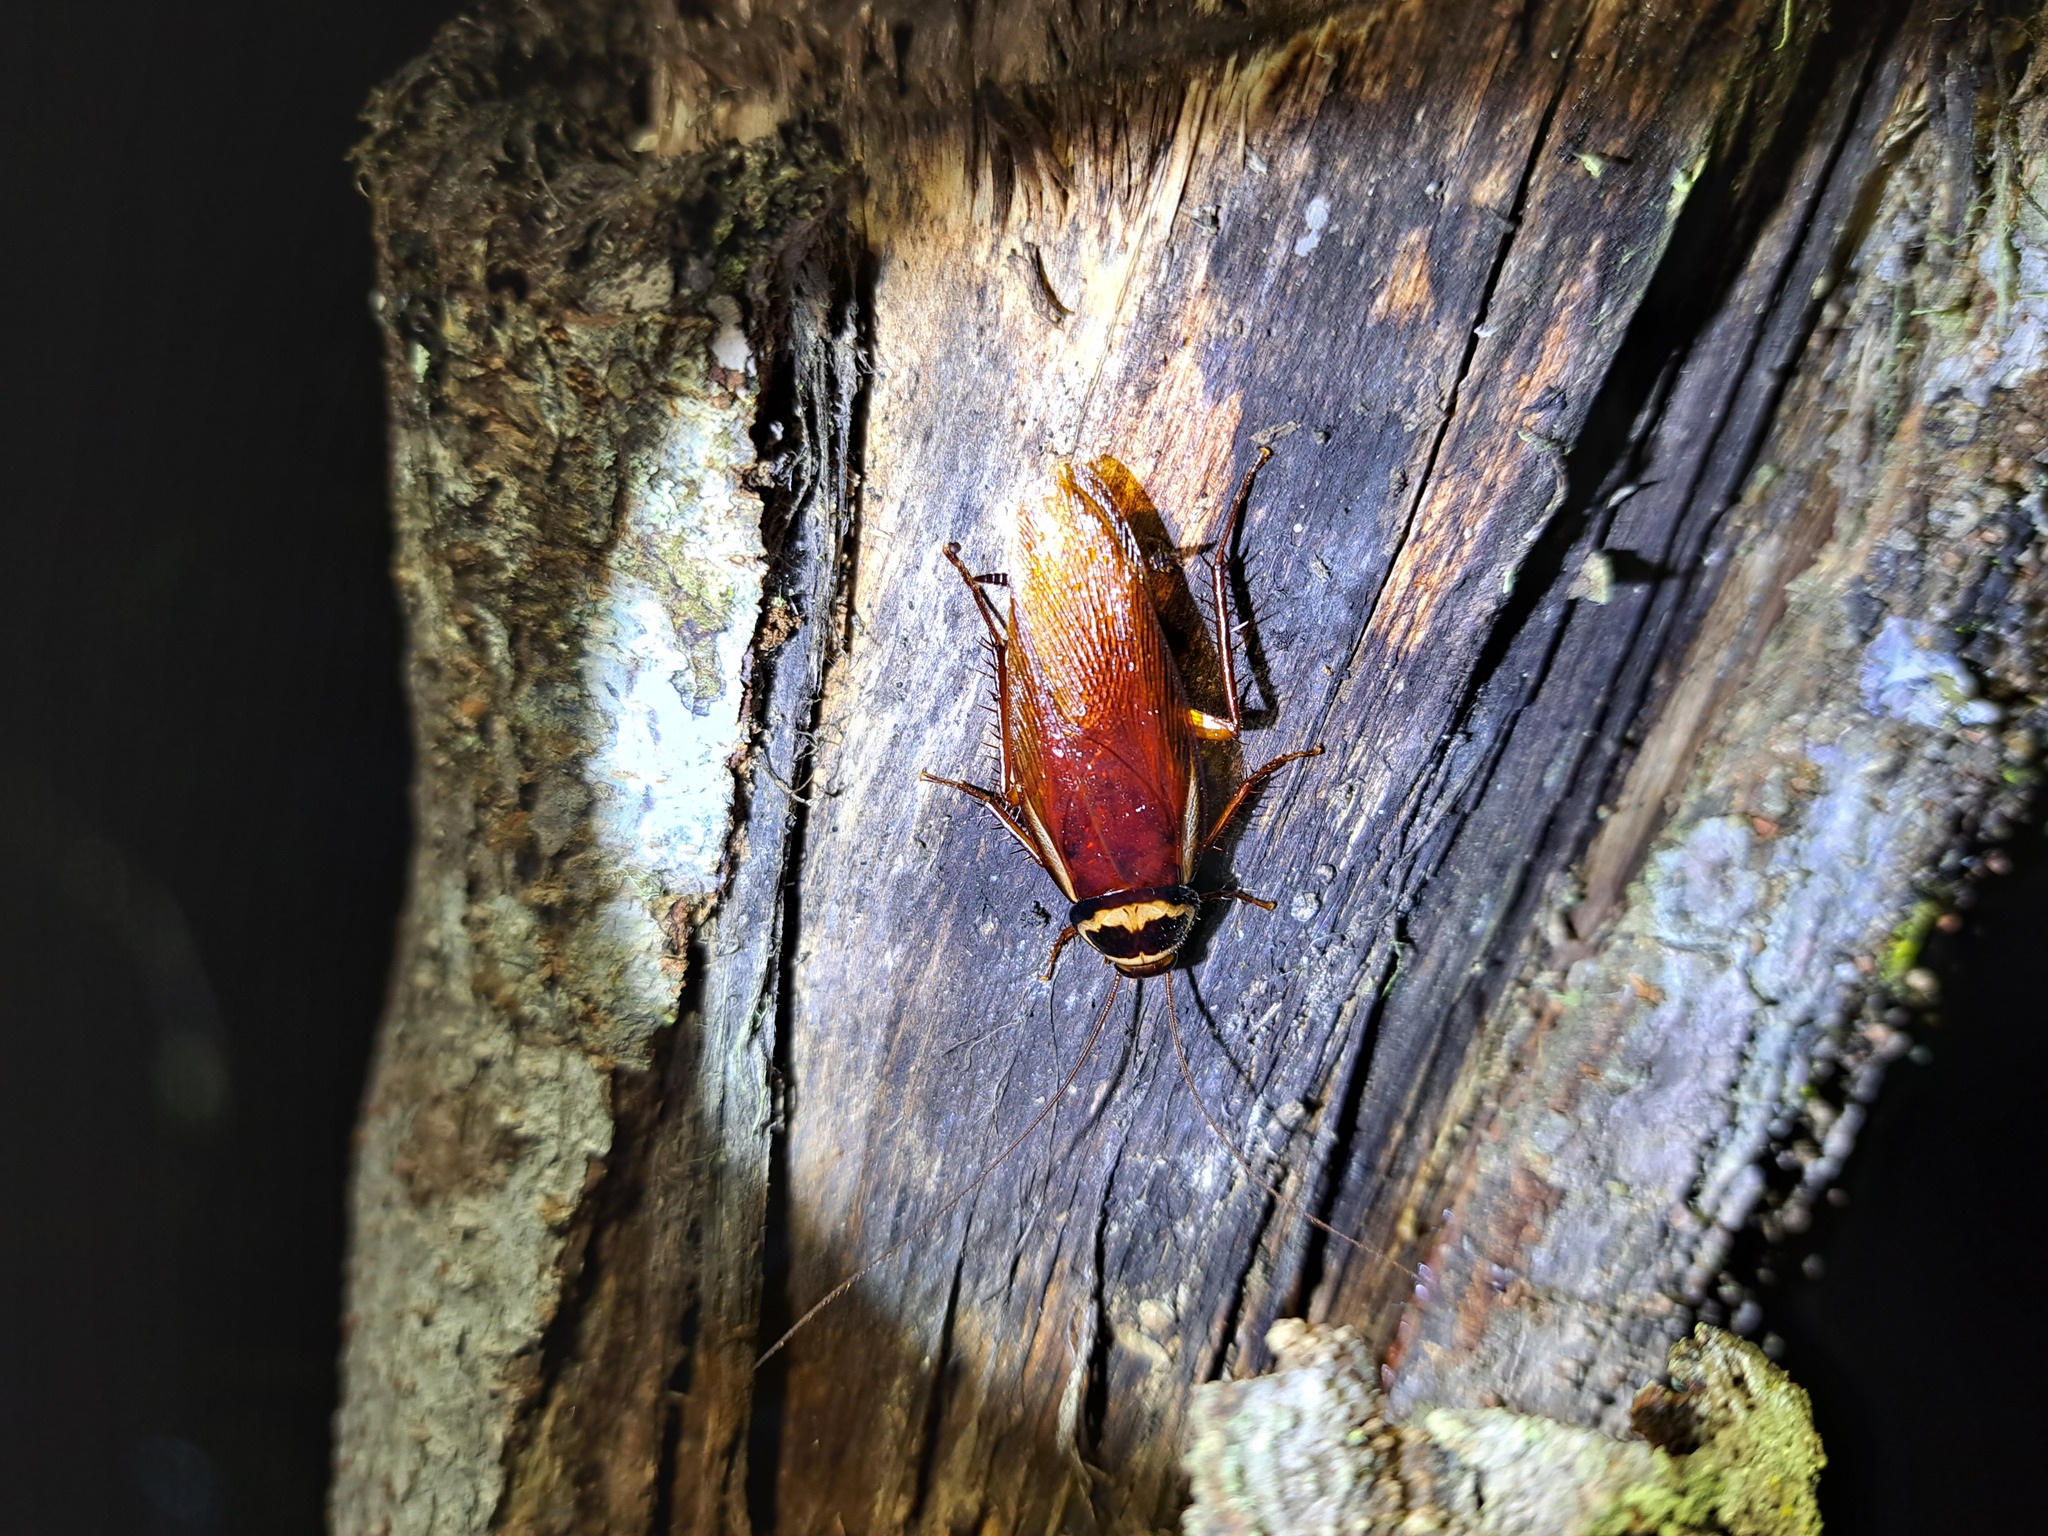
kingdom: Animalia
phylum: Arthropoda
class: Insecta
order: Blattodea
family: Blattidae
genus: Periplaneta
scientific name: Periplaneta australasiae
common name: Australian cockroach
